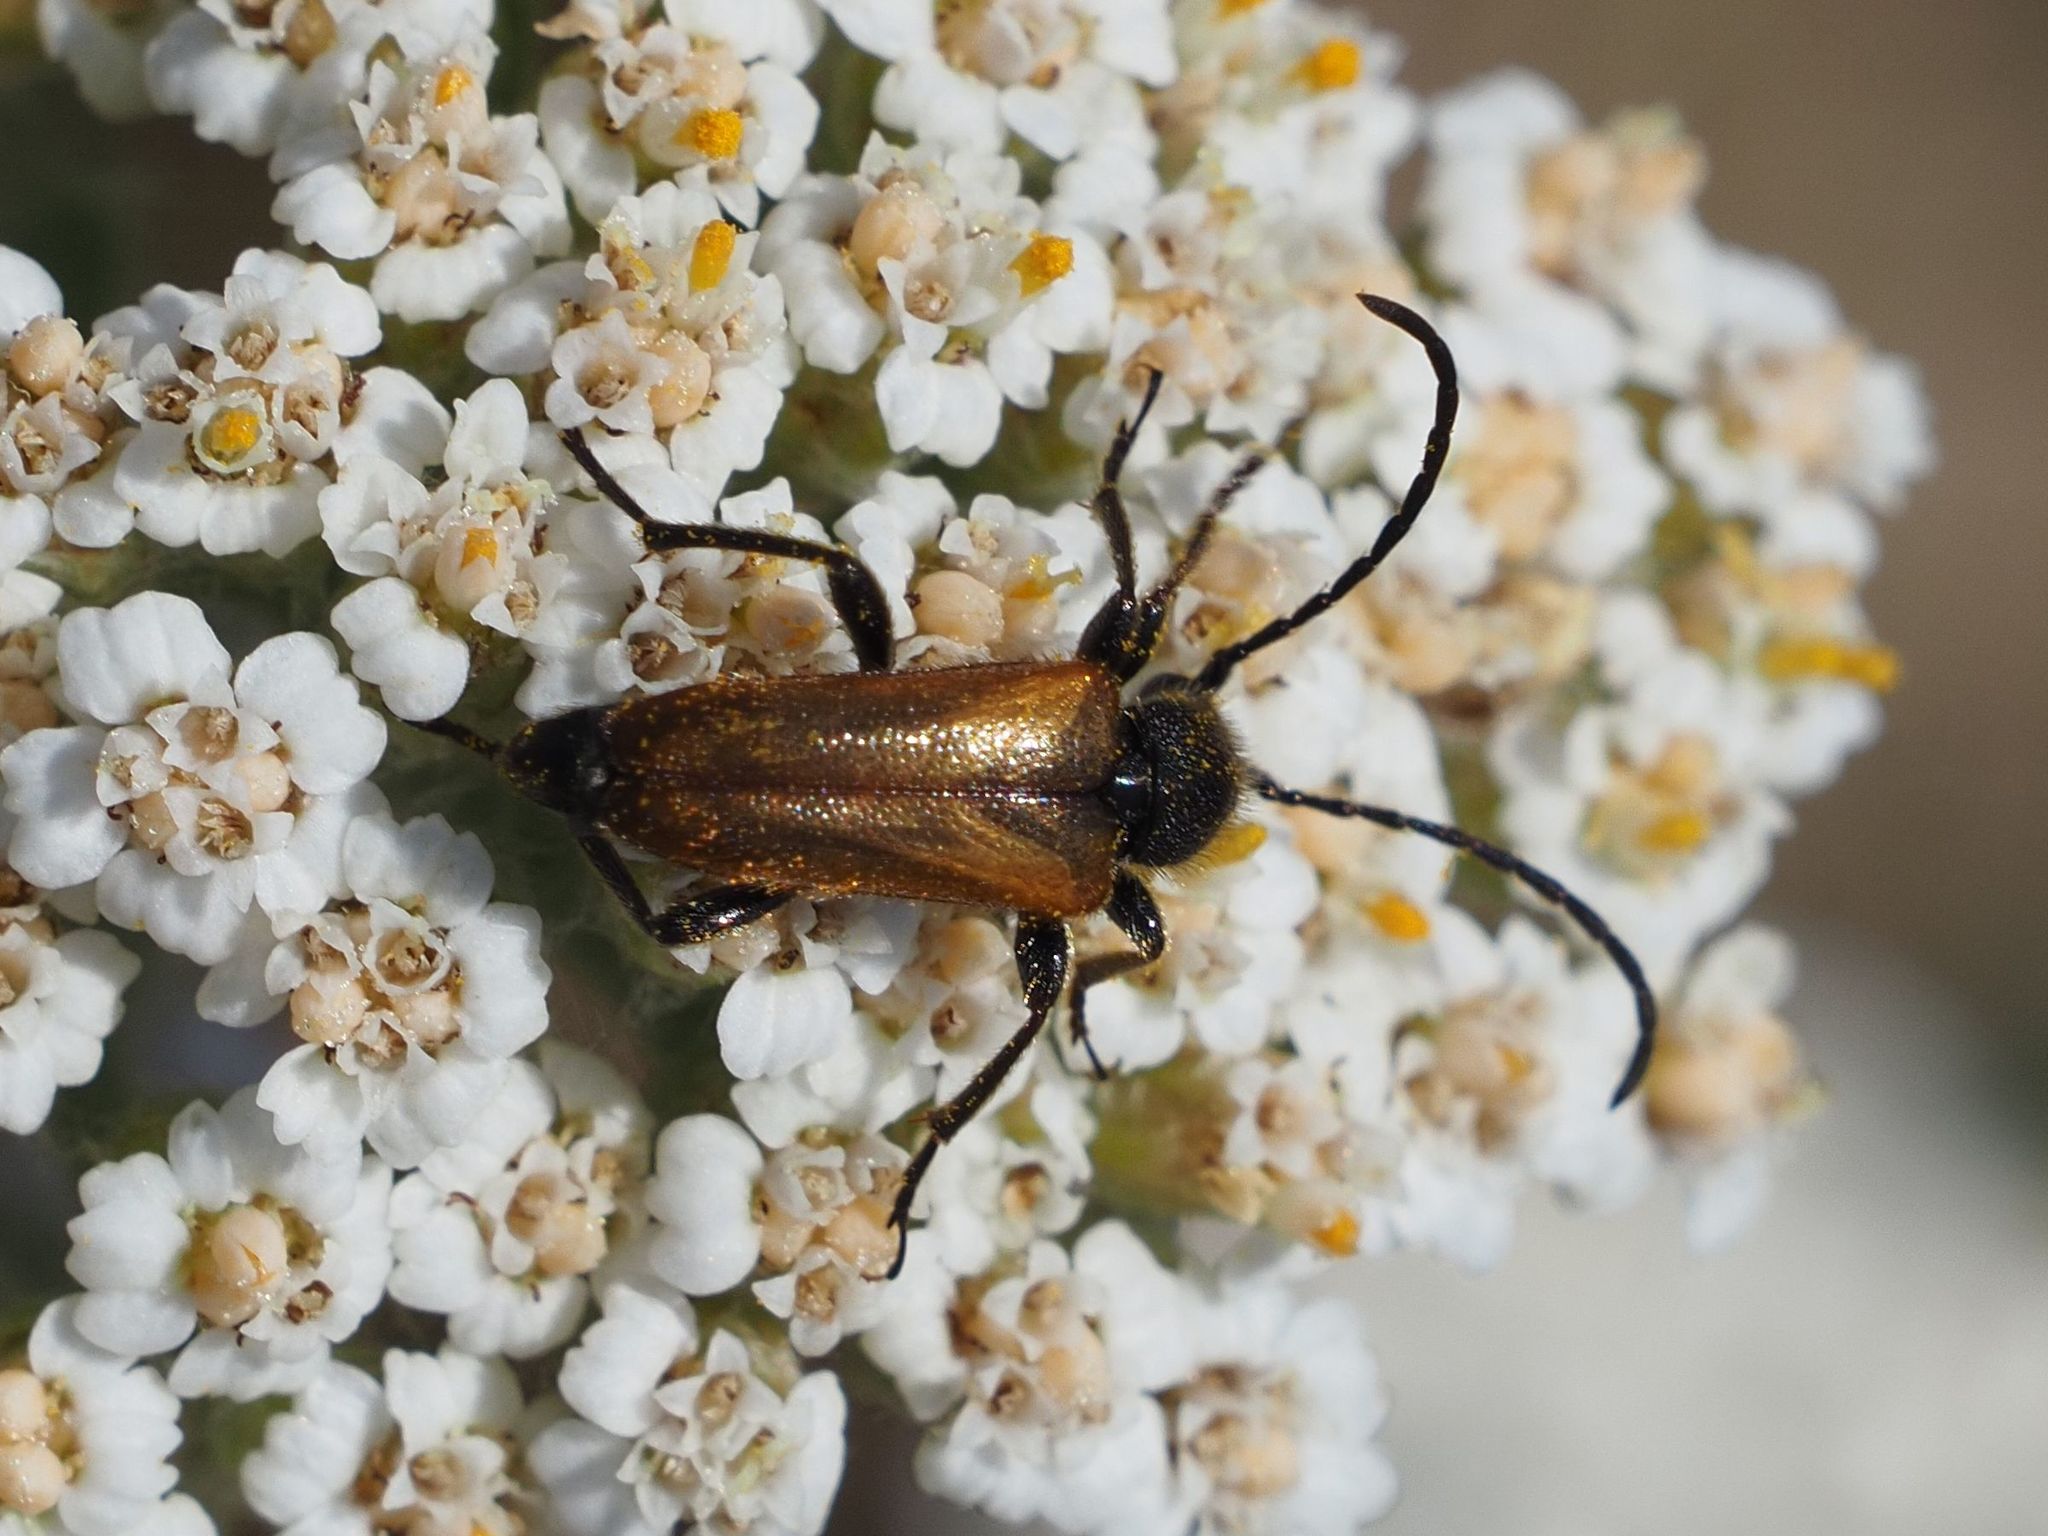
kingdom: Animalia
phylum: Arthropoda
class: Insecta
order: Coleoptera
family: Cerambycidae
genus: Pseudovadonia
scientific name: Pseudovadonia livida
